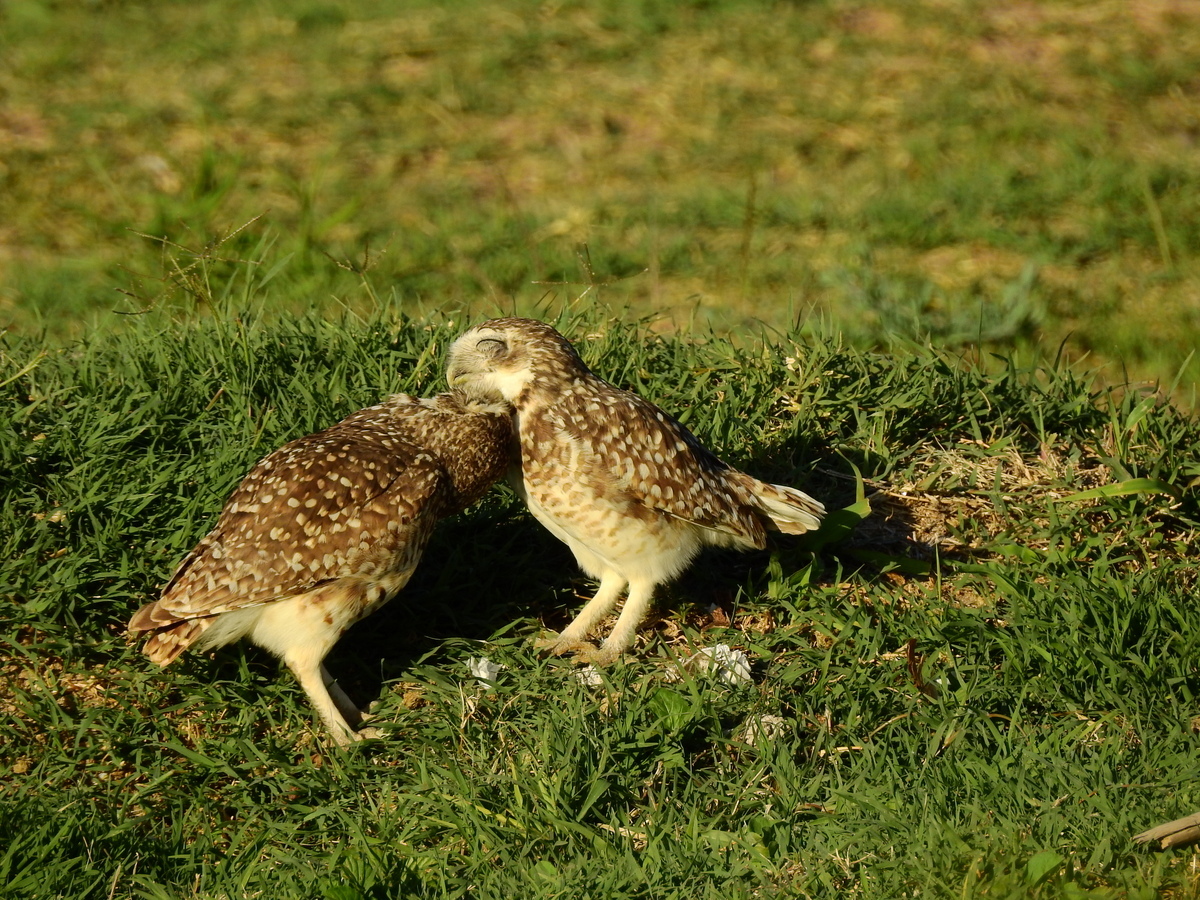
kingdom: Animalia
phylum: Chordata
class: Aves
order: Strigiformes
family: Strigidae
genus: Athene
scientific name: Athene cunicularia
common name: Burrowing owl
